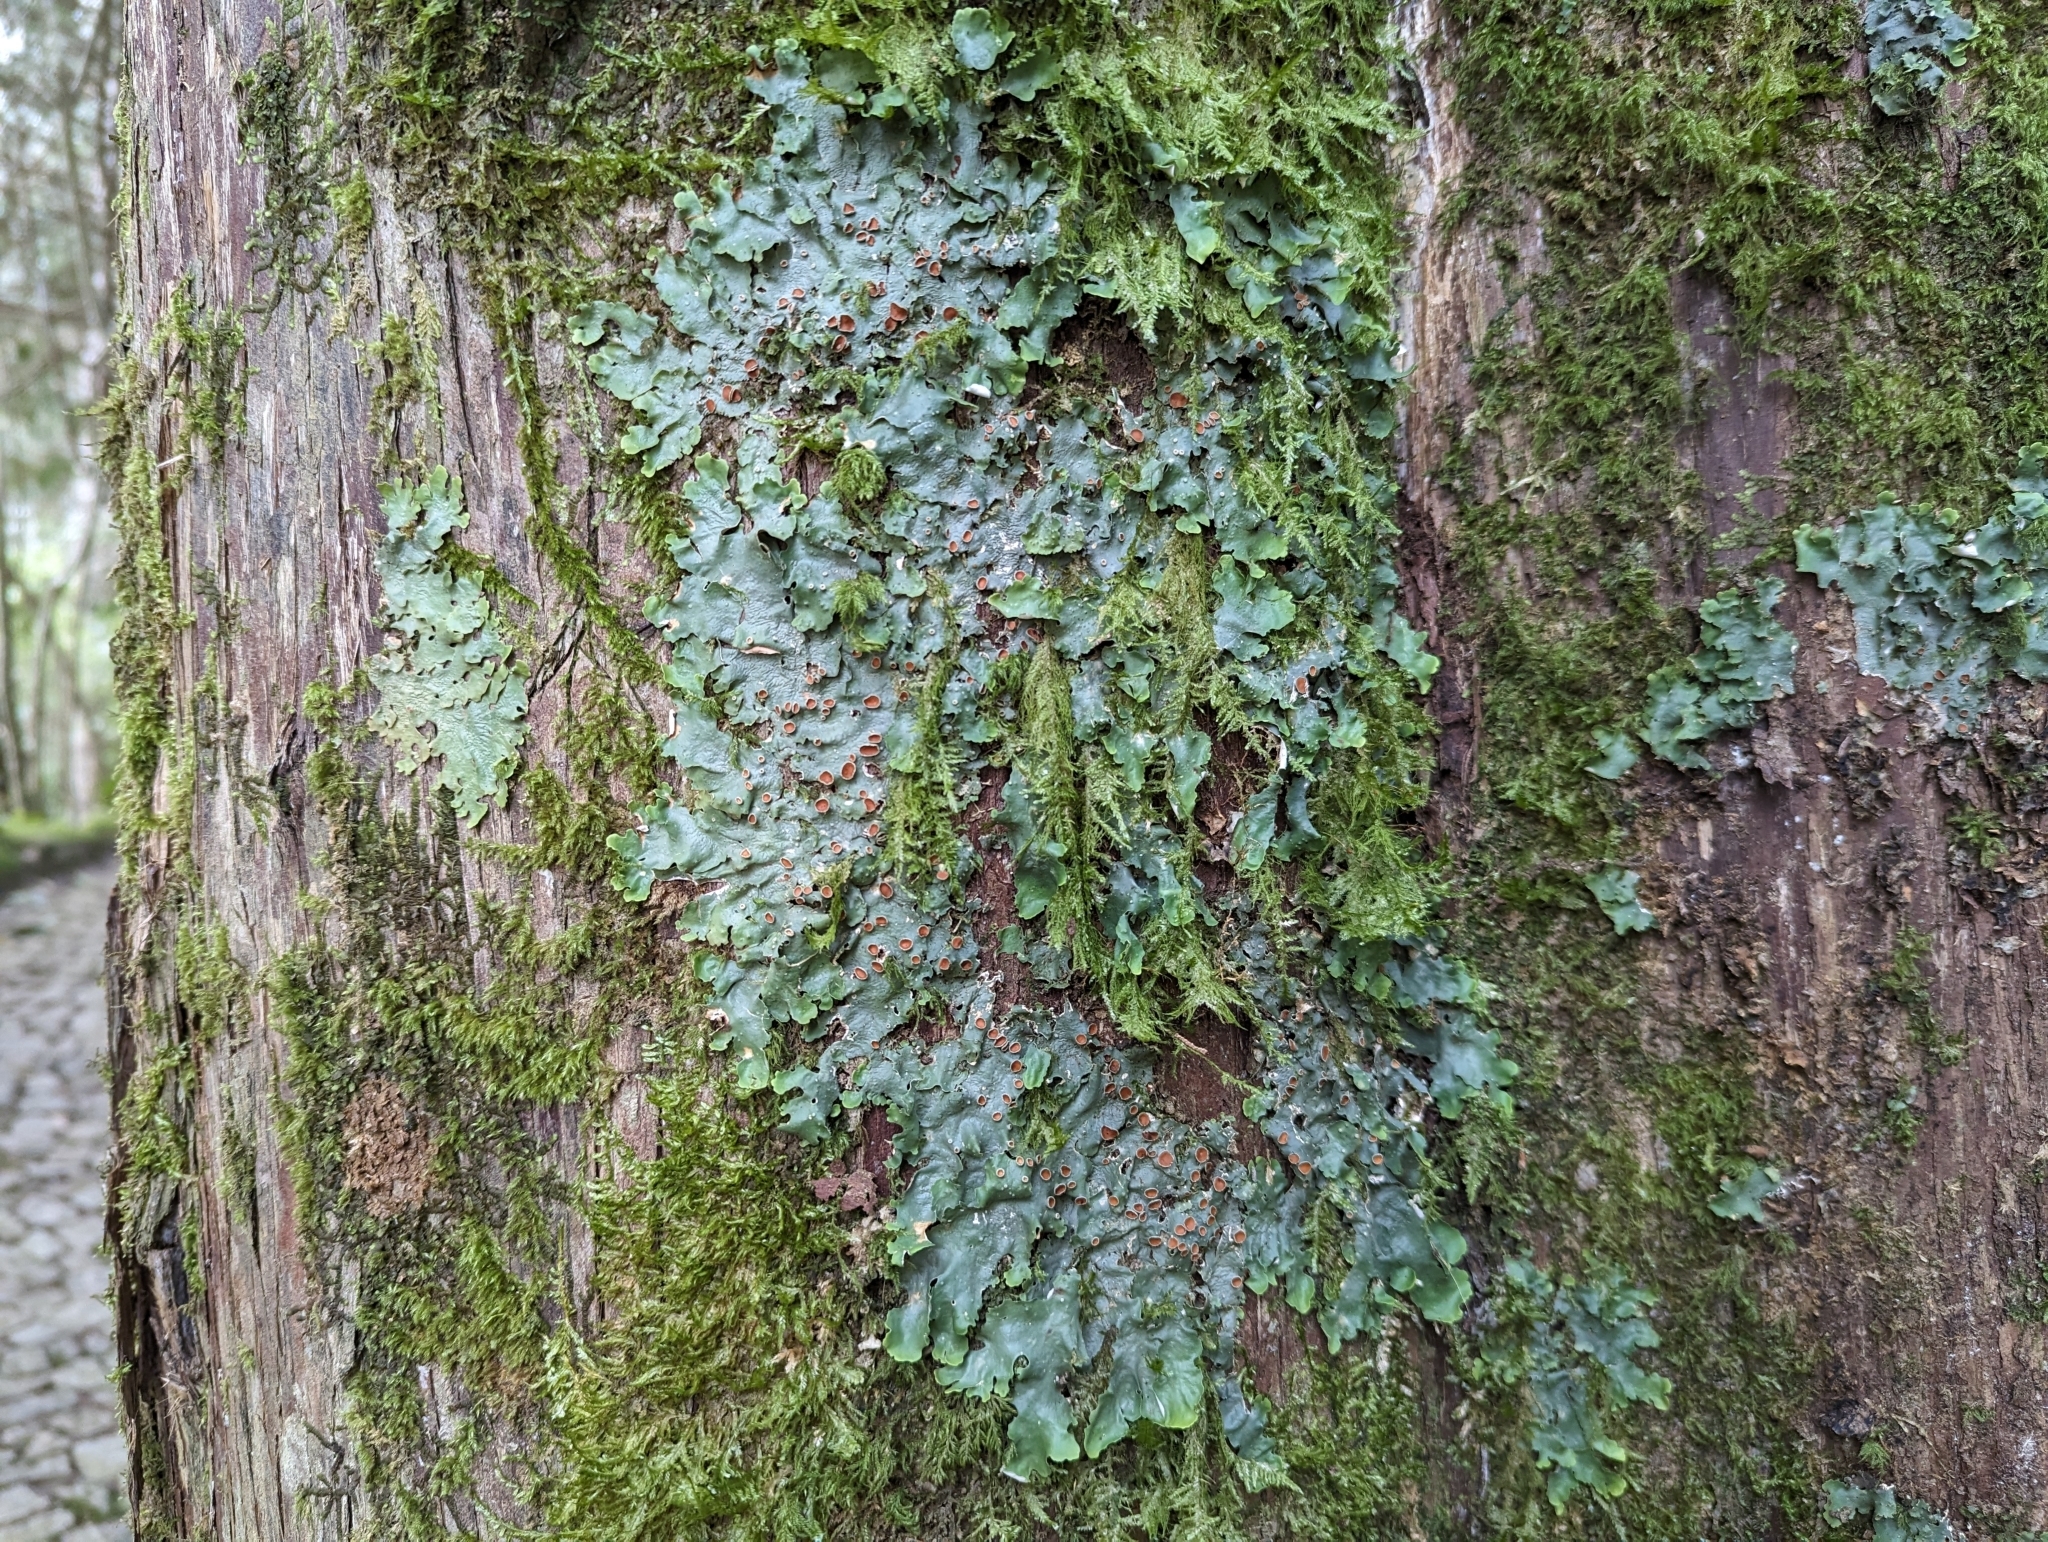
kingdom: Fungi
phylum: Ascomycota
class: Lecanoromycetes
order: Peltigerales
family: Lobariaceae
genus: Ricasolia
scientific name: Ricasolia virens
